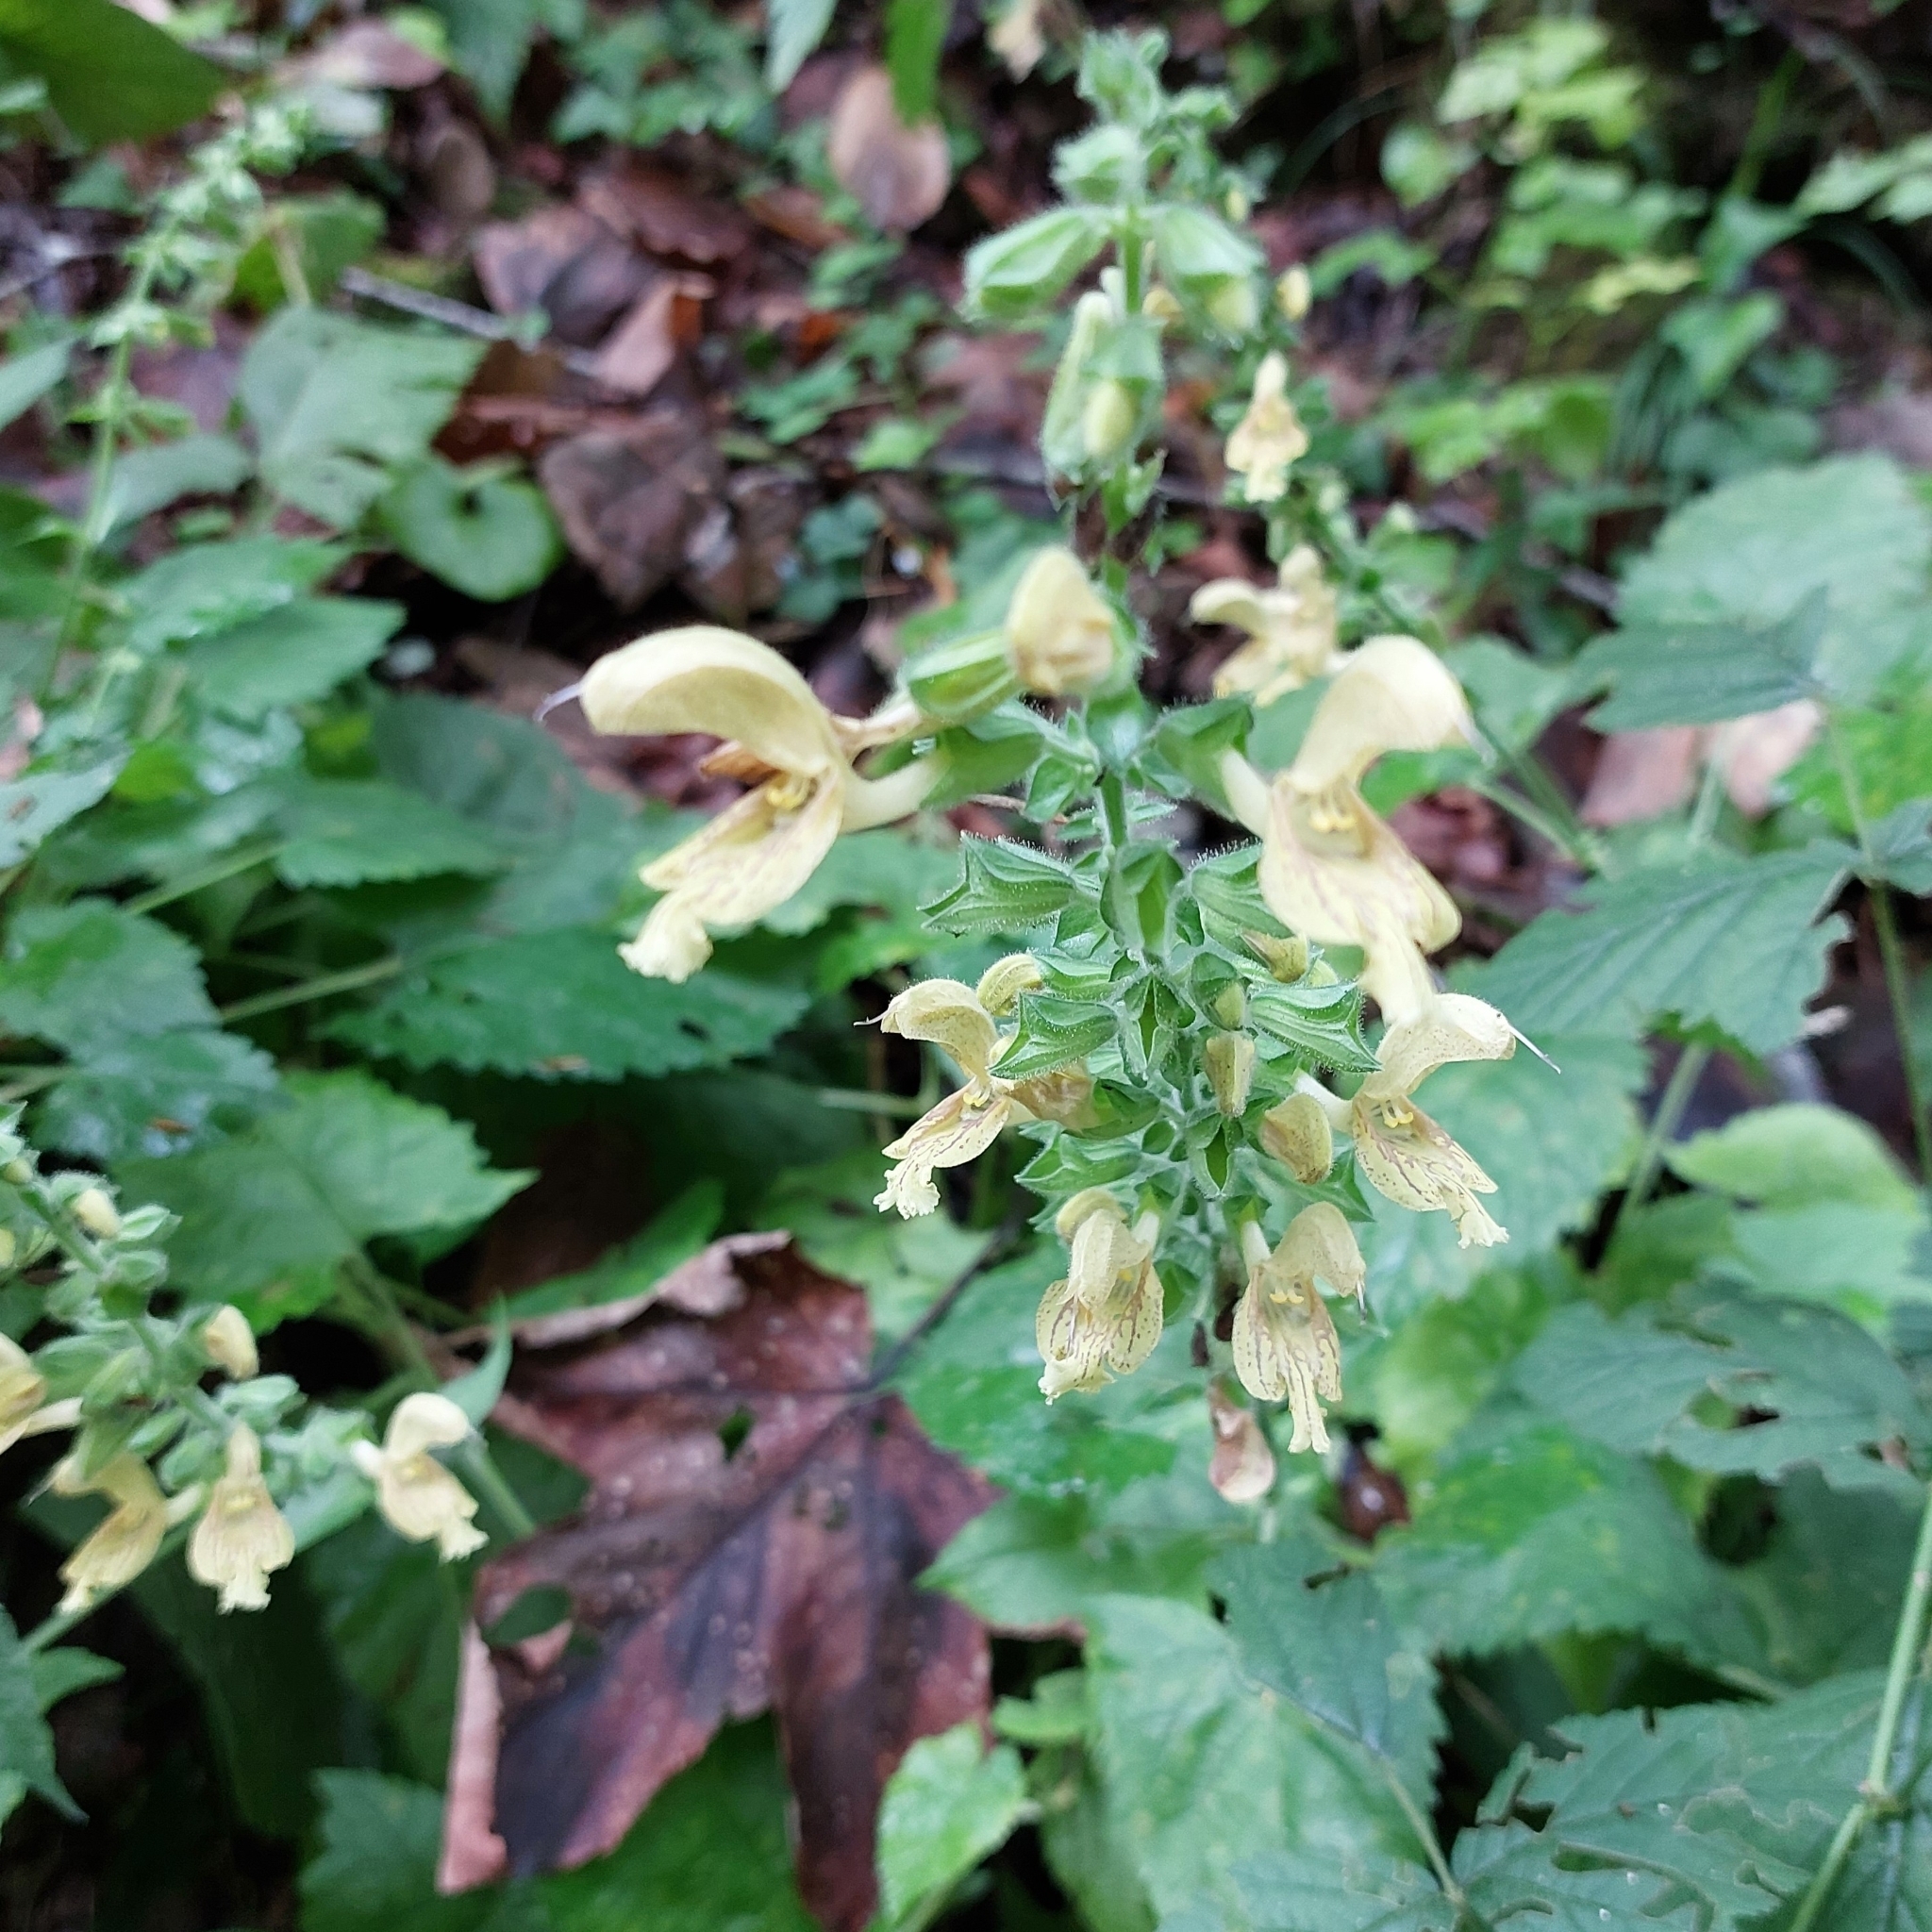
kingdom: Plantae
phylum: Tracheophyta
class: Magnoliopsida
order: Lamiales
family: Lamiaceae
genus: Salvia
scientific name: Salvia glutinosa
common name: Sticky clary
